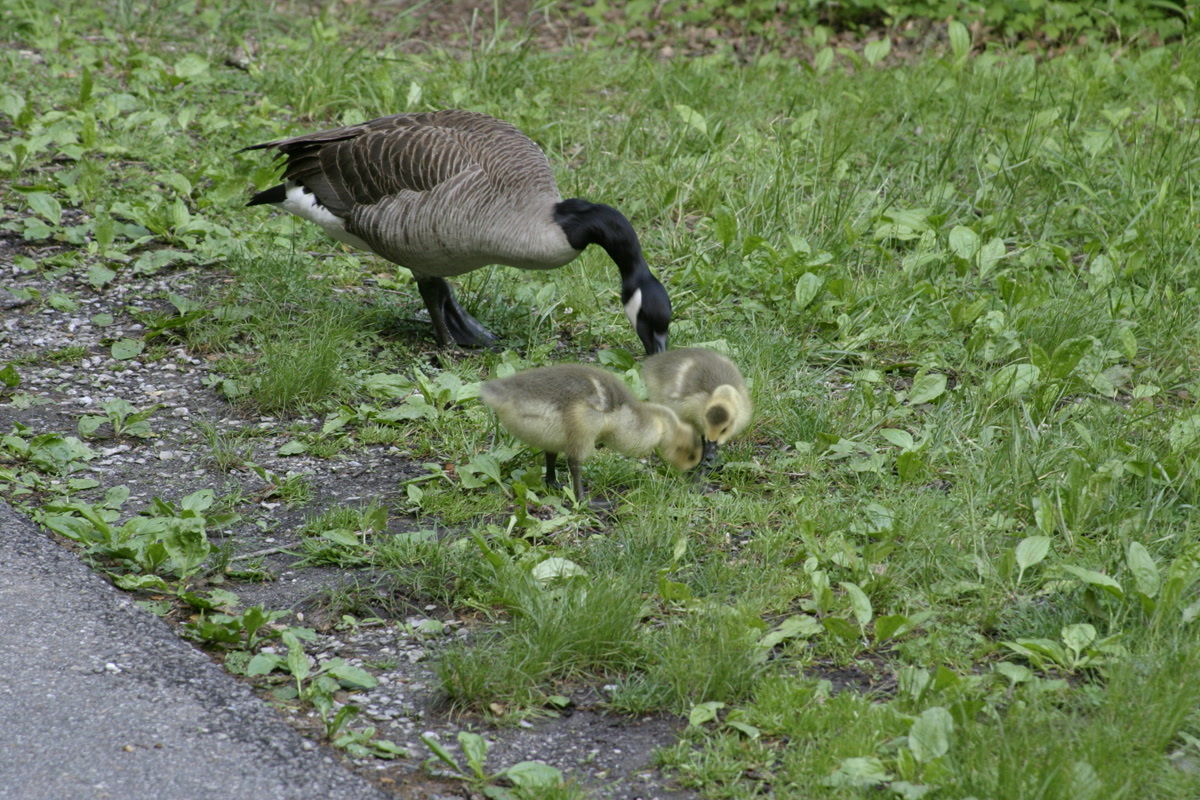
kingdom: Animalia
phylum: Chordata
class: Aves
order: Anseriformes
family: Anatidae
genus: Branta
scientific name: Branta canadensis
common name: Canada goose
